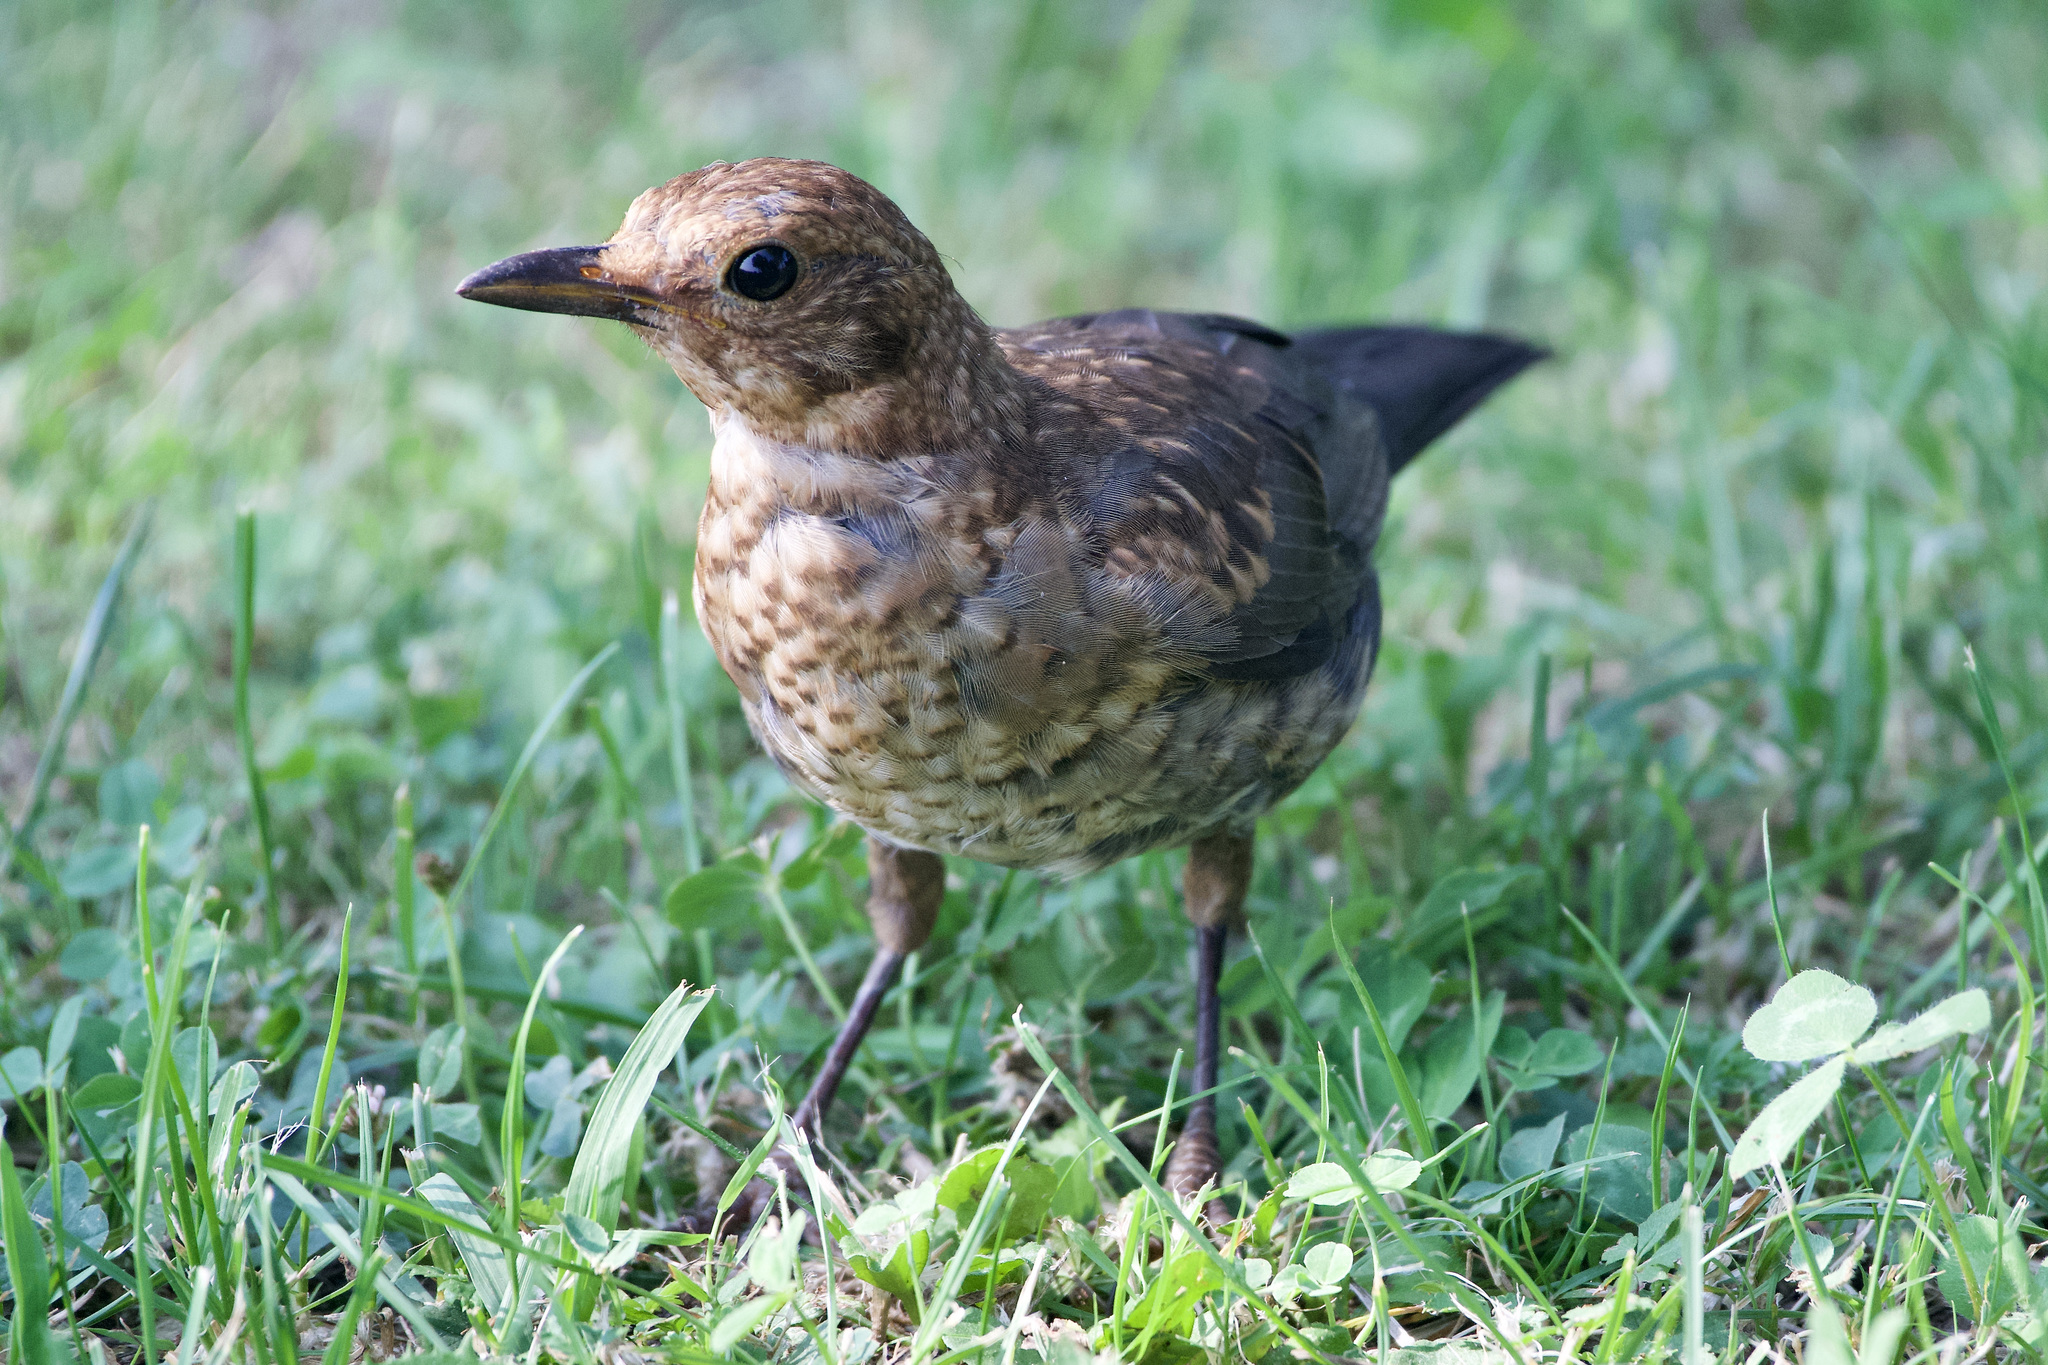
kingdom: Animalia
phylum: Chordata
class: Aves
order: Passeriformes
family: Turdidae
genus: Turdus
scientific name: Turdus merula
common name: Common blackbird
